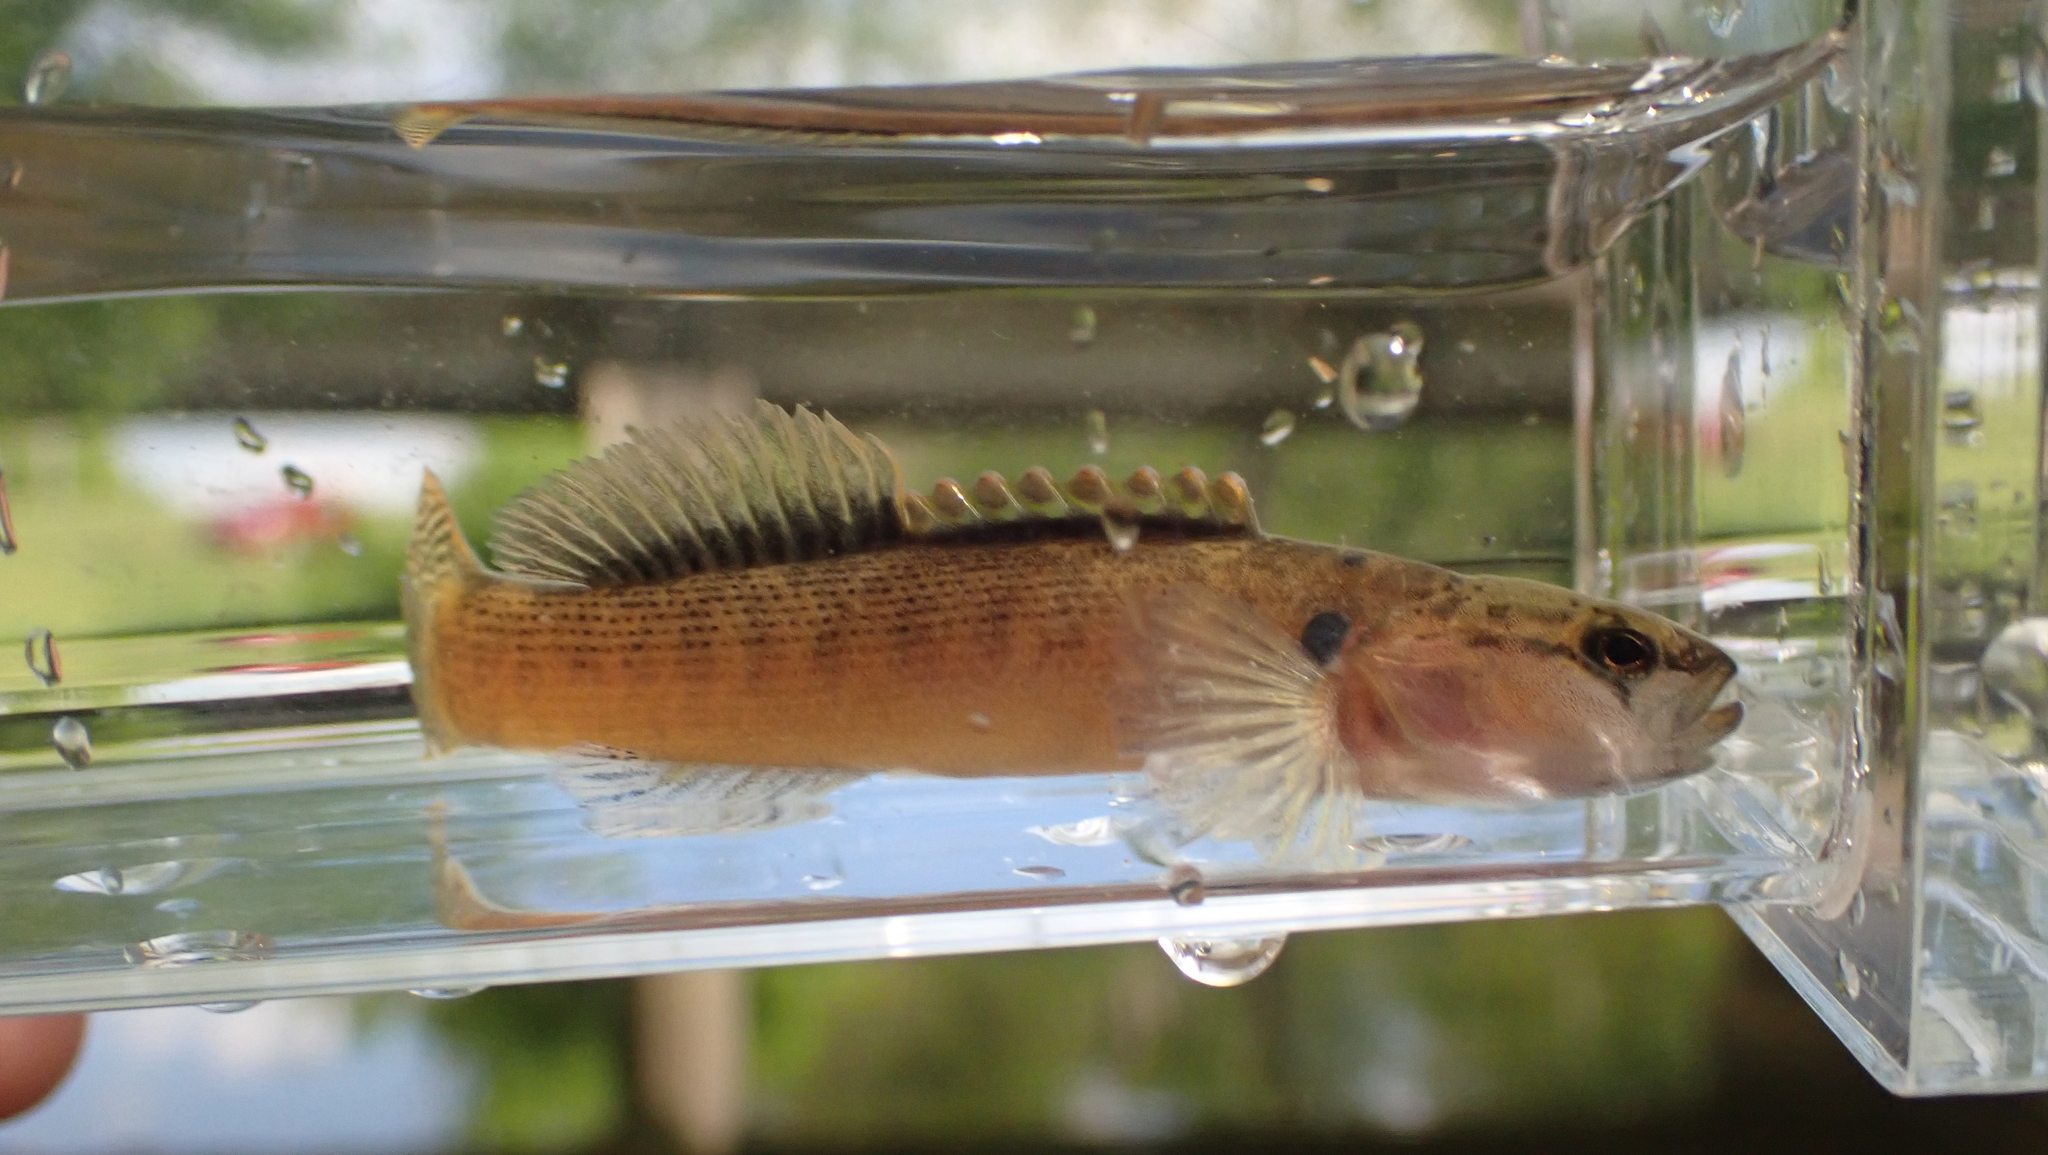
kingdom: Animalia
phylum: Chordata
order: Perciformes
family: Percidae
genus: Etheostoma
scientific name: Etheostoma flabellare
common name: Fantail darter
